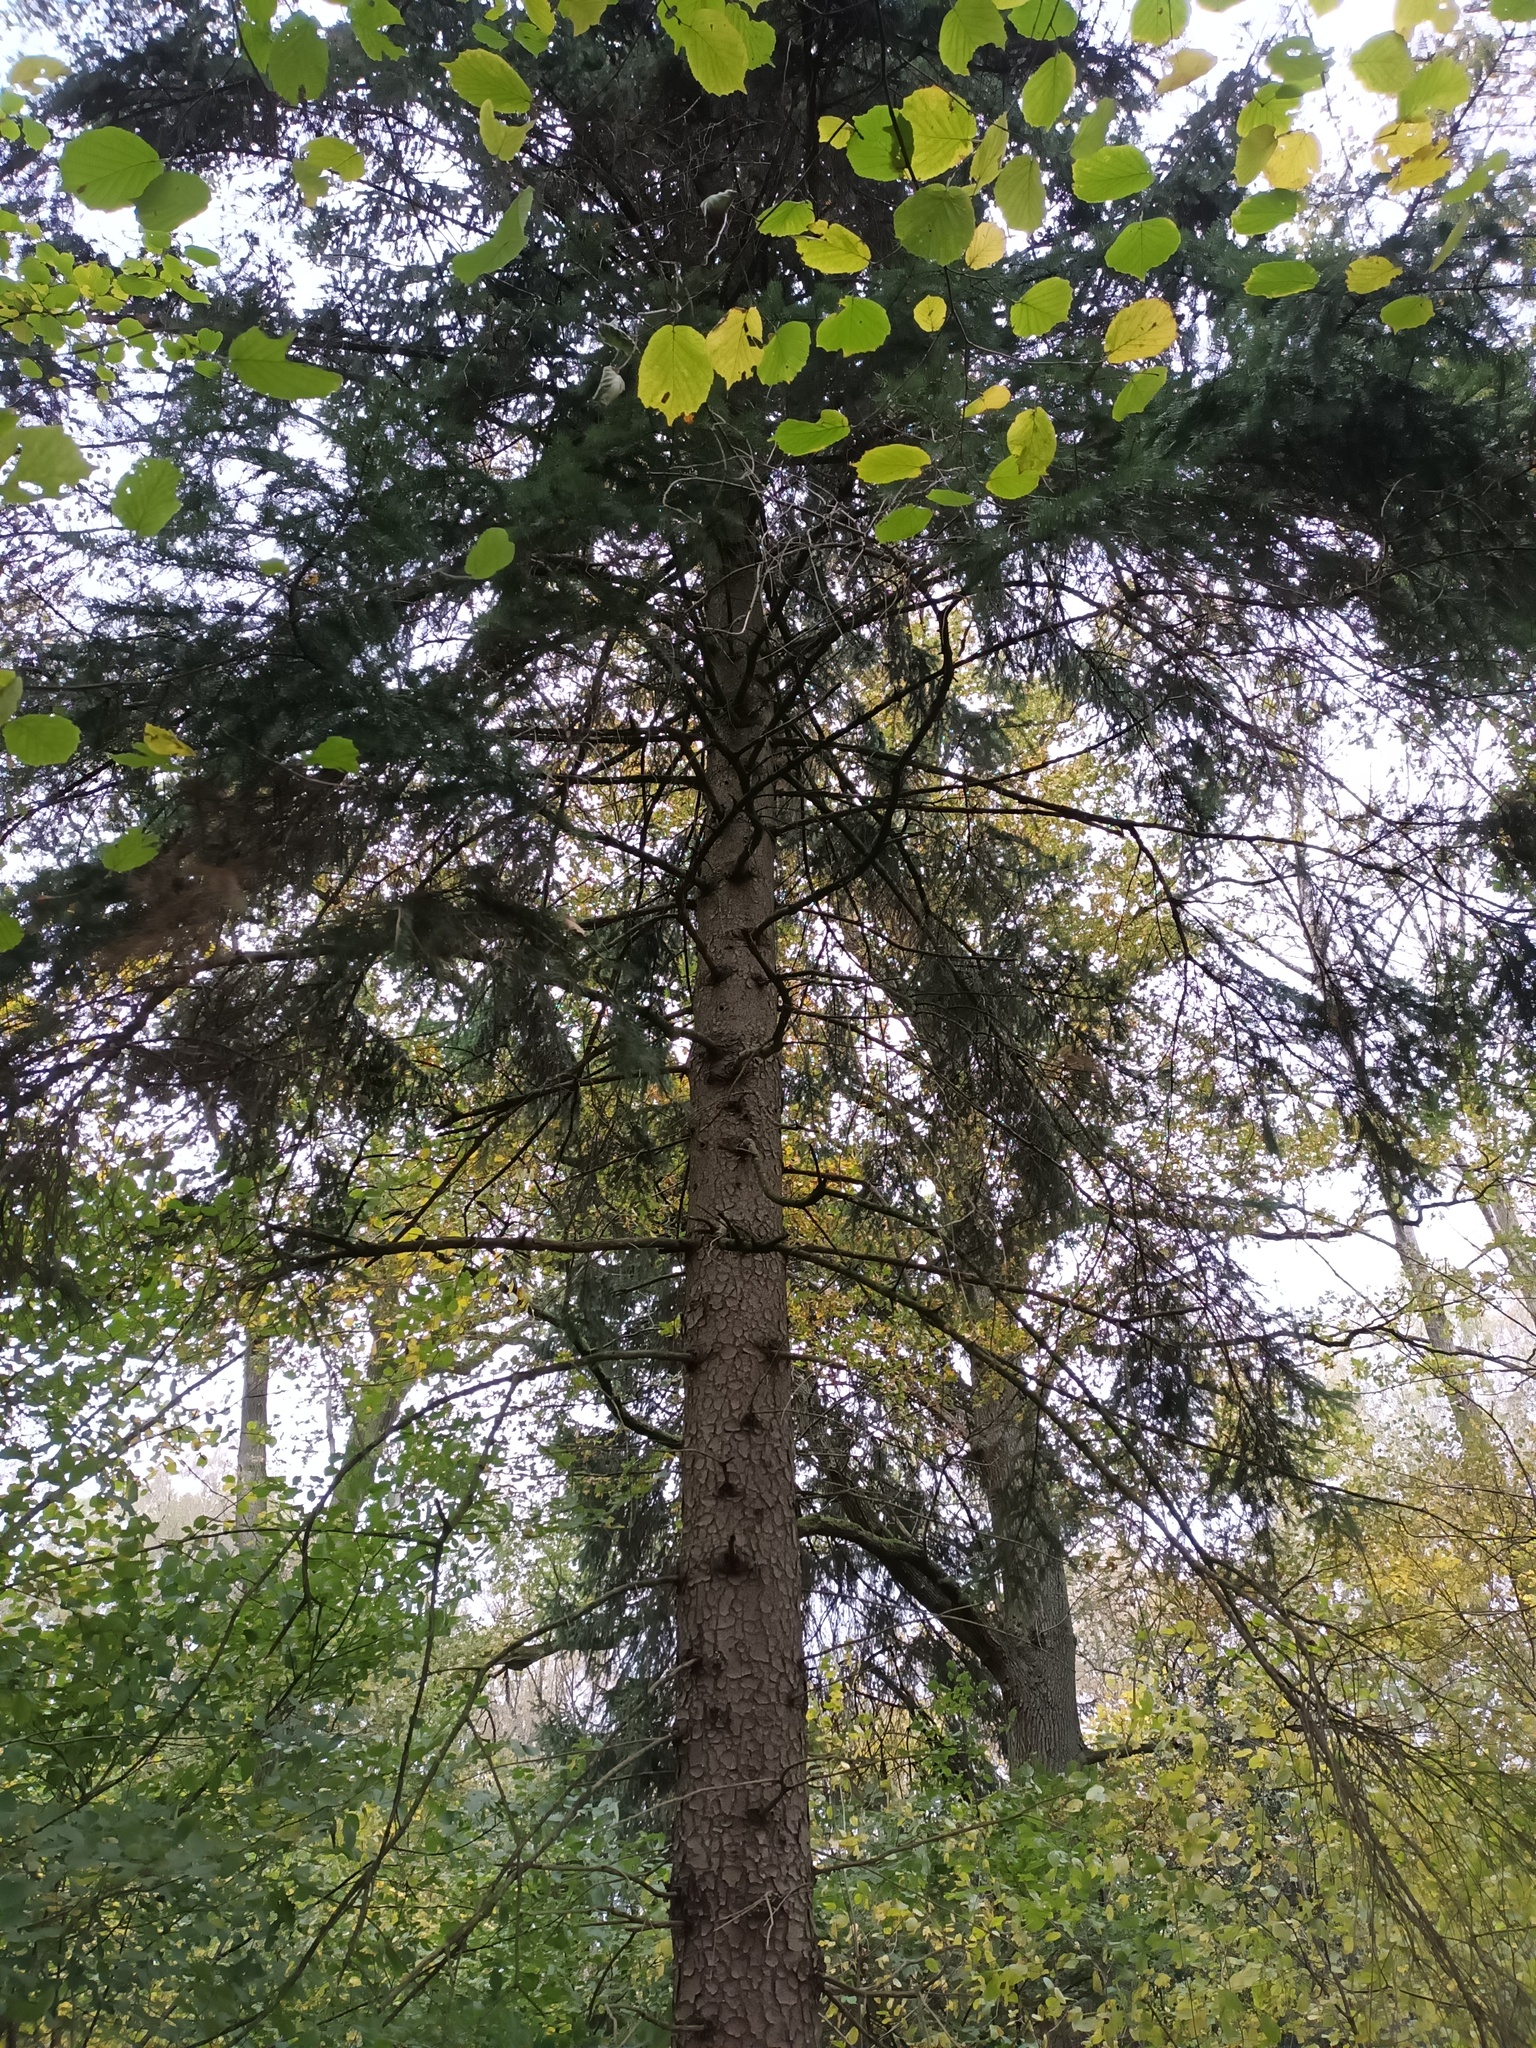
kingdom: Plantae
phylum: Tracheophyta
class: Pinopsida
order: Pinales
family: Pinaceae
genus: Picea
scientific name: Picea abies
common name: Norway spruce
